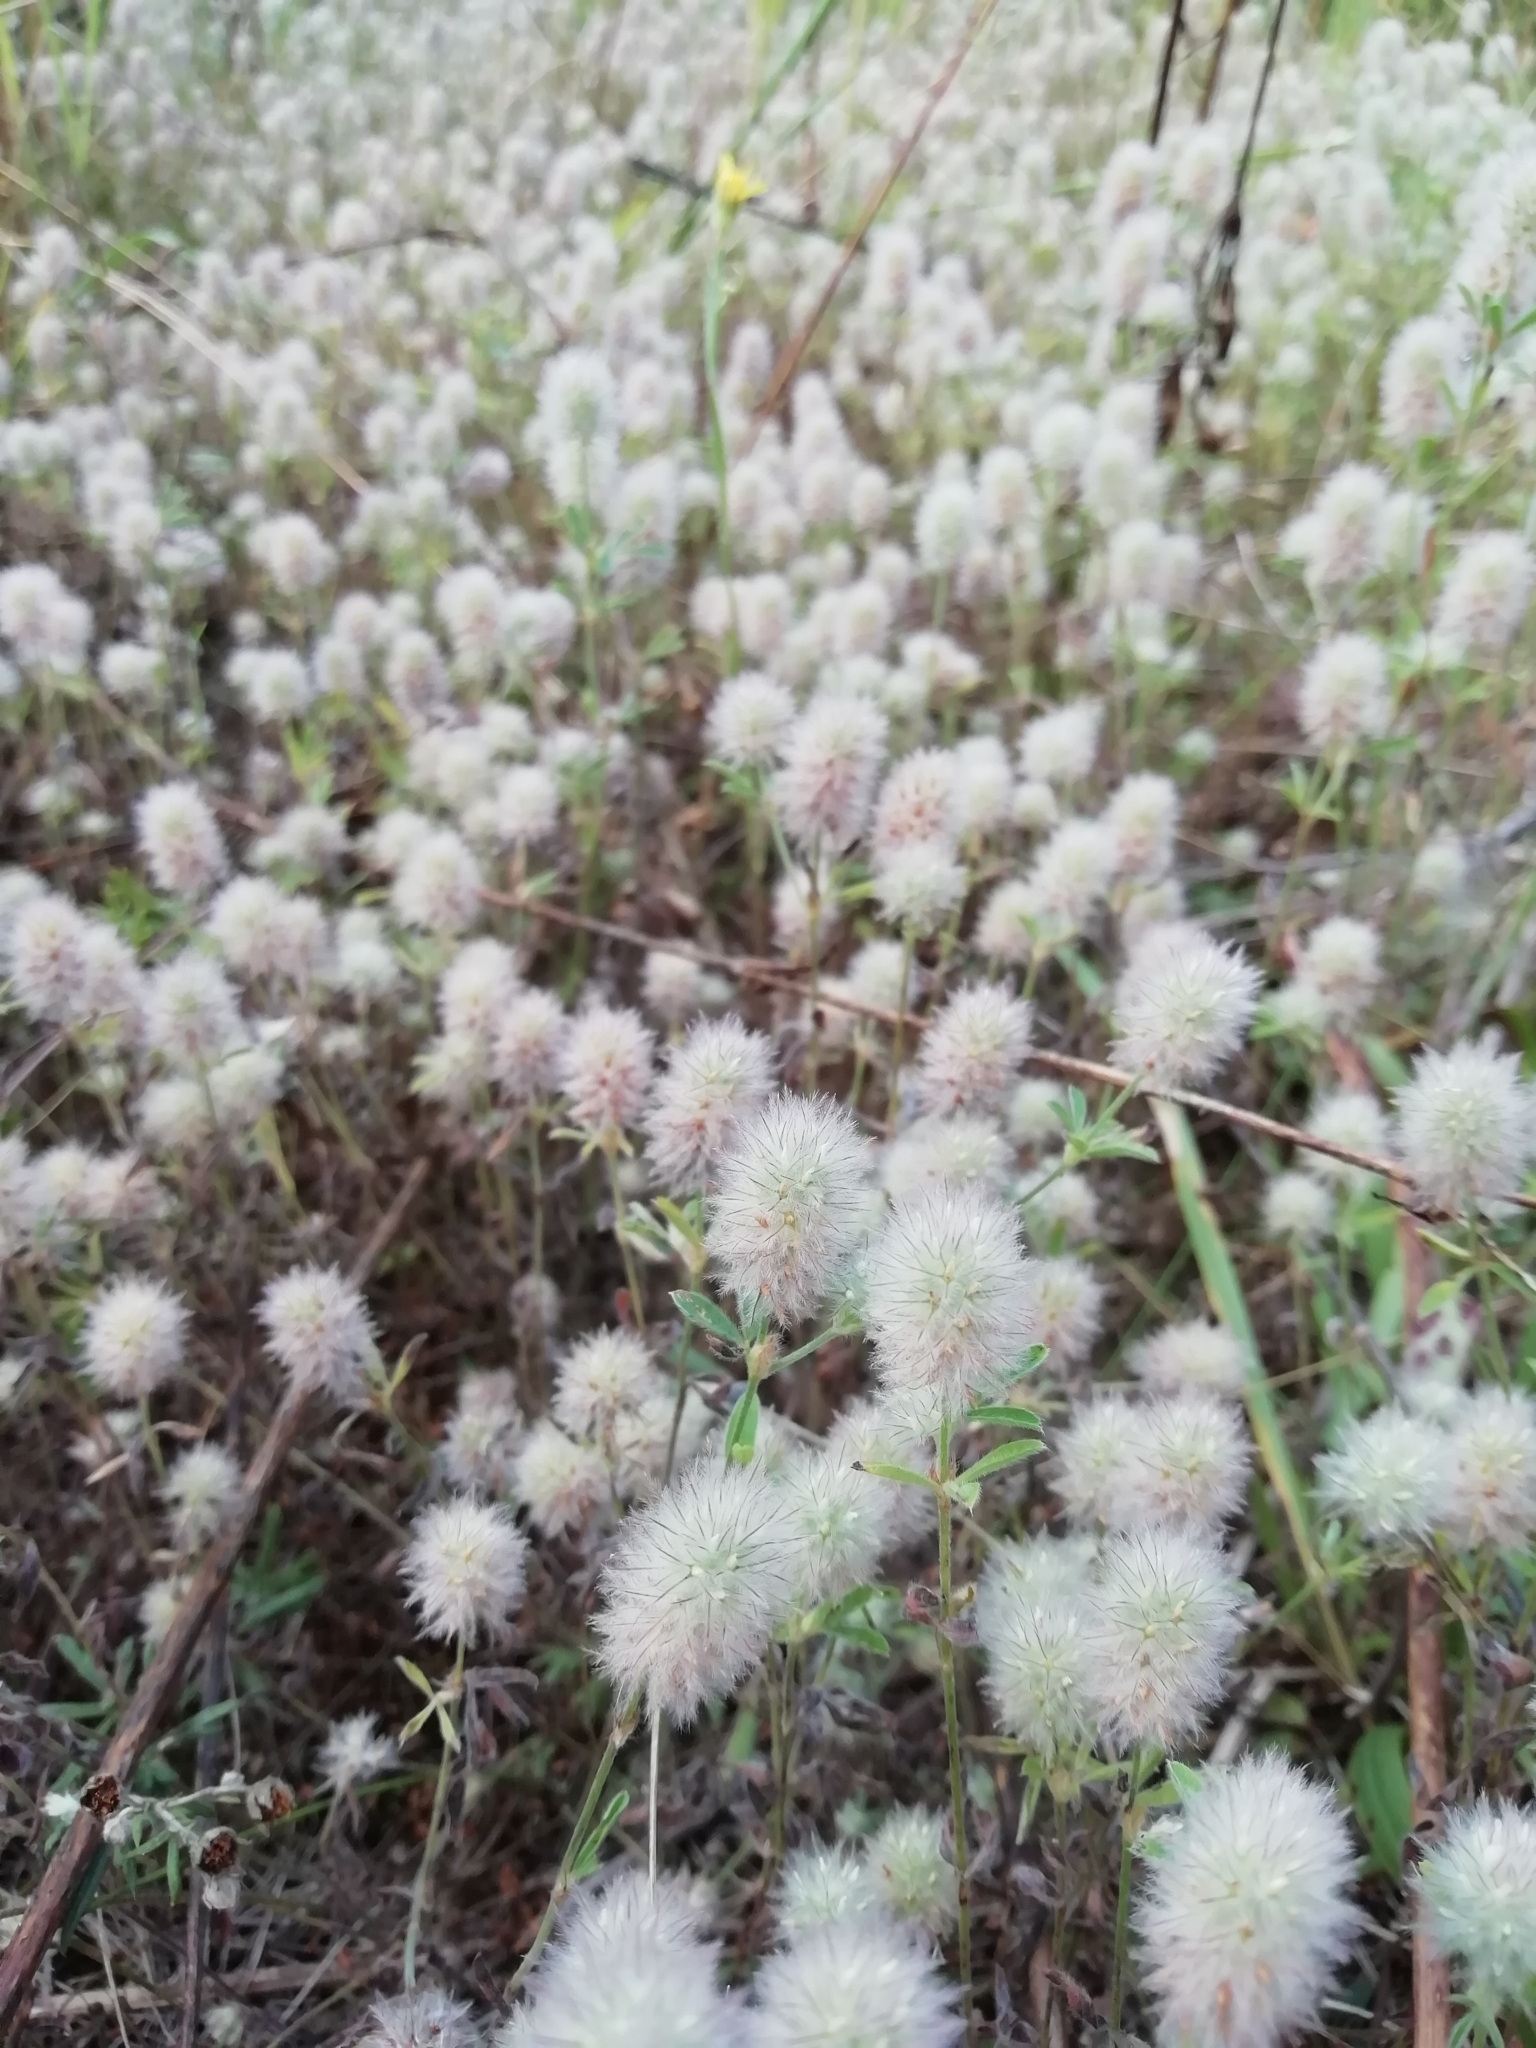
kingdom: Plantae
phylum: Tracheophyta
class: Magnoliopsida
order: Fabales
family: Fabaceae
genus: Trifolium
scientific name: Trifolium arvense
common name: Hare's-foot clover
